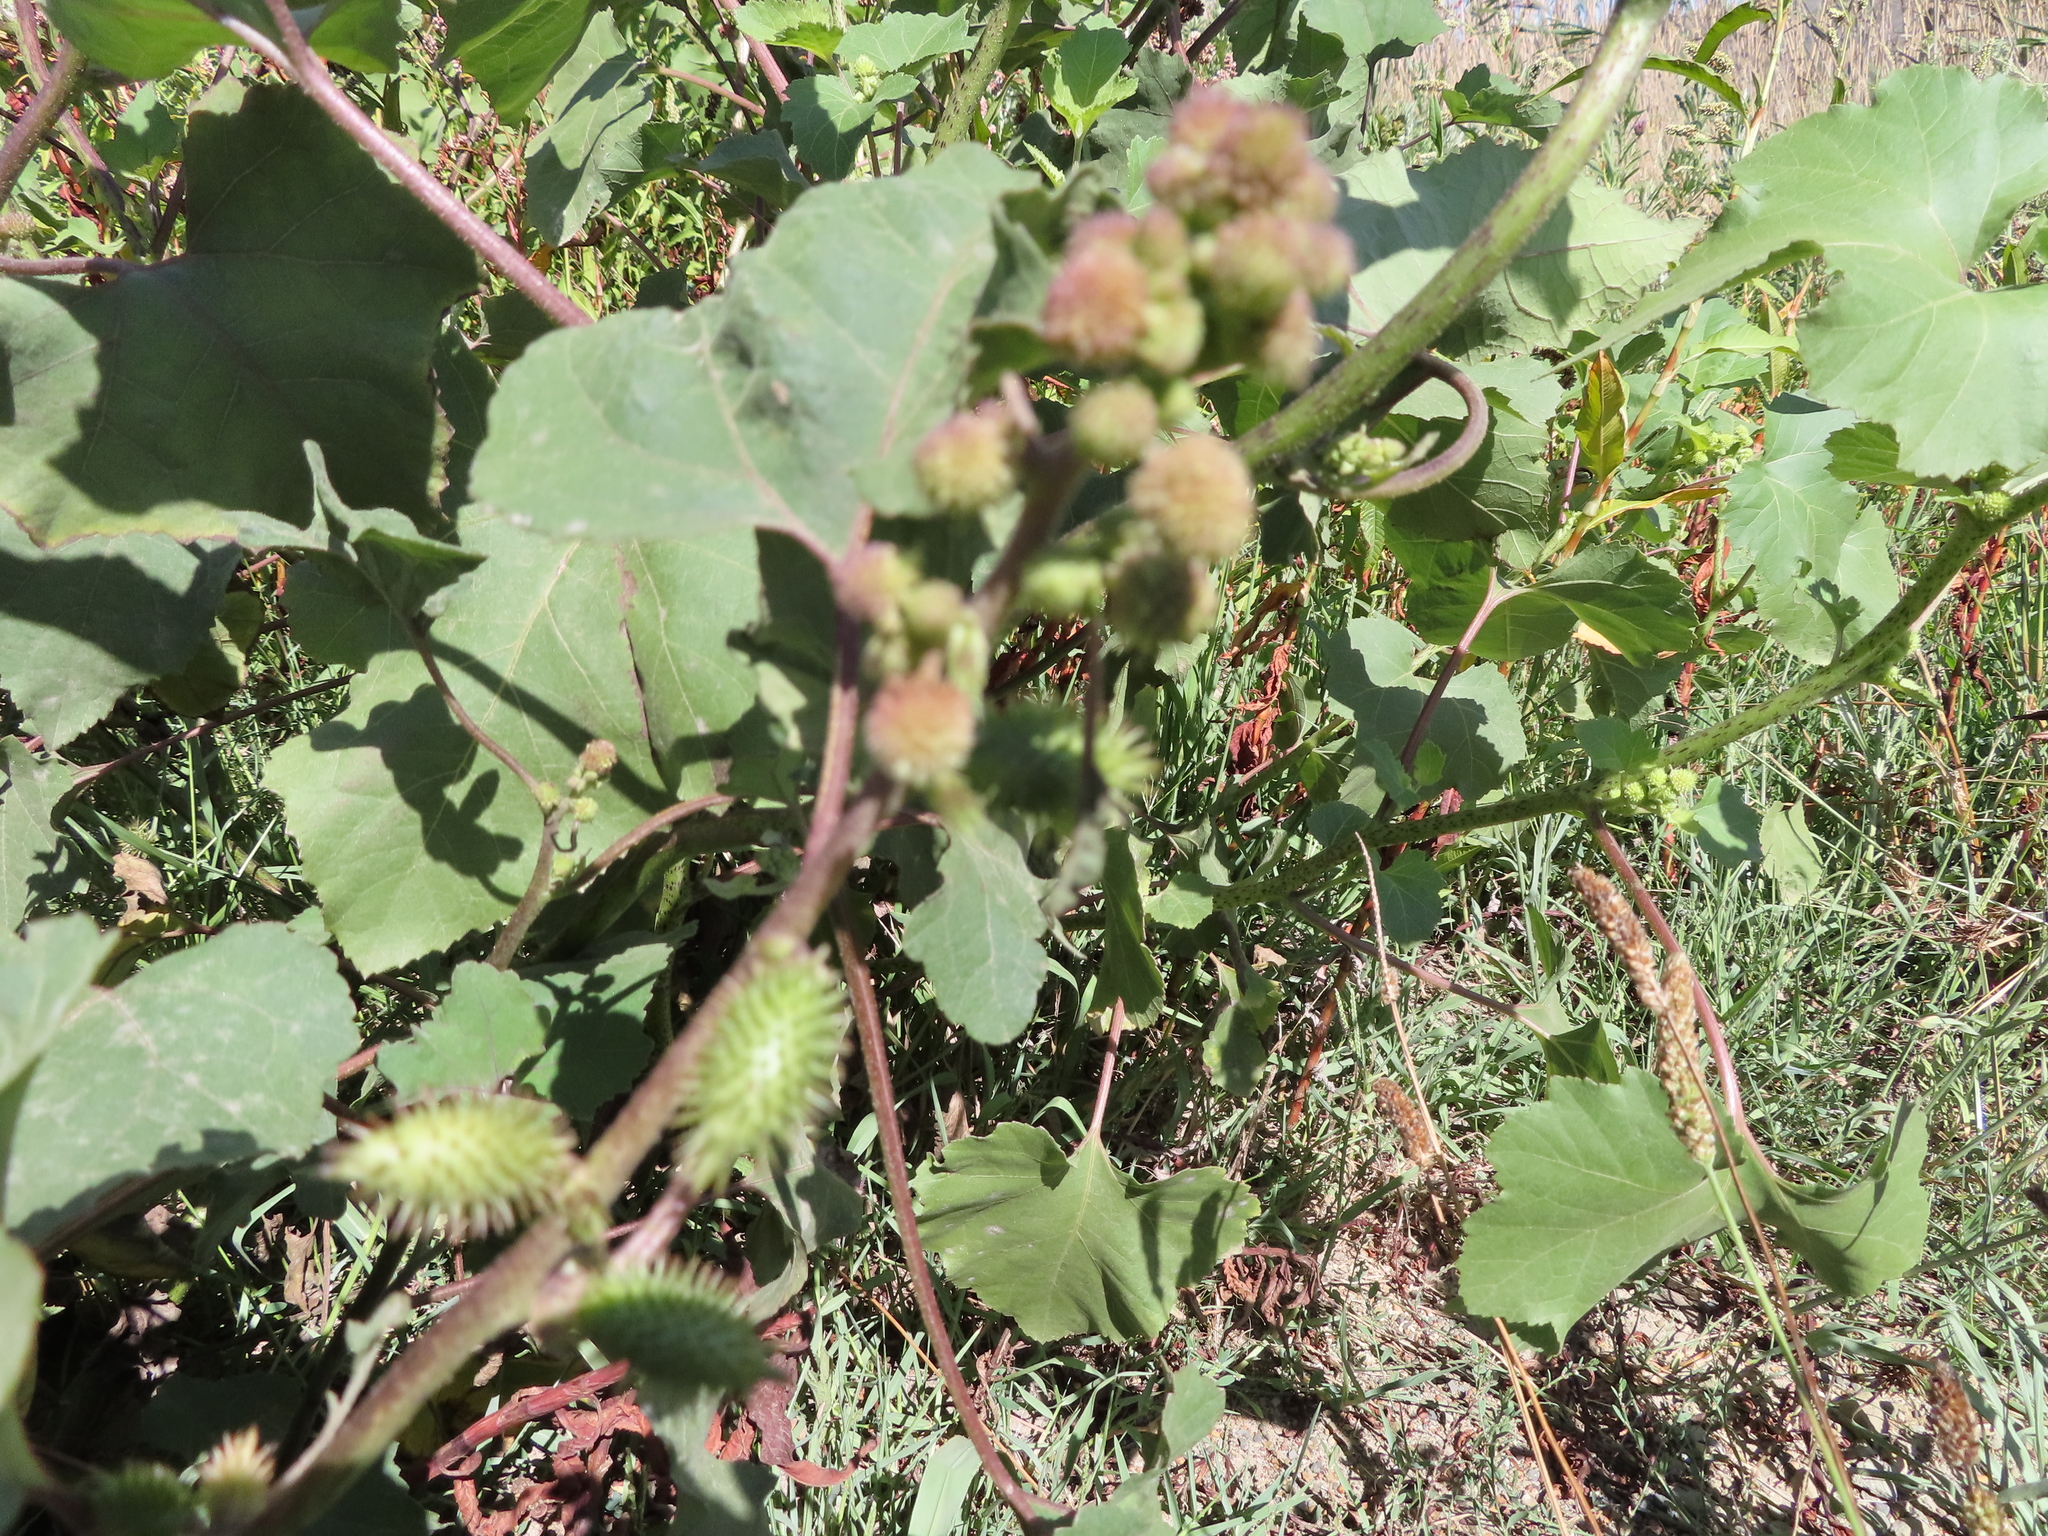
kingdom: Plantae
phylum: Tracheophyta
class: Magnoliopsida
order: Asterales
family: Asteraceae
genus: Xanthium
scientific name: Xanthium strumarium
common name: Rough cocklebur
